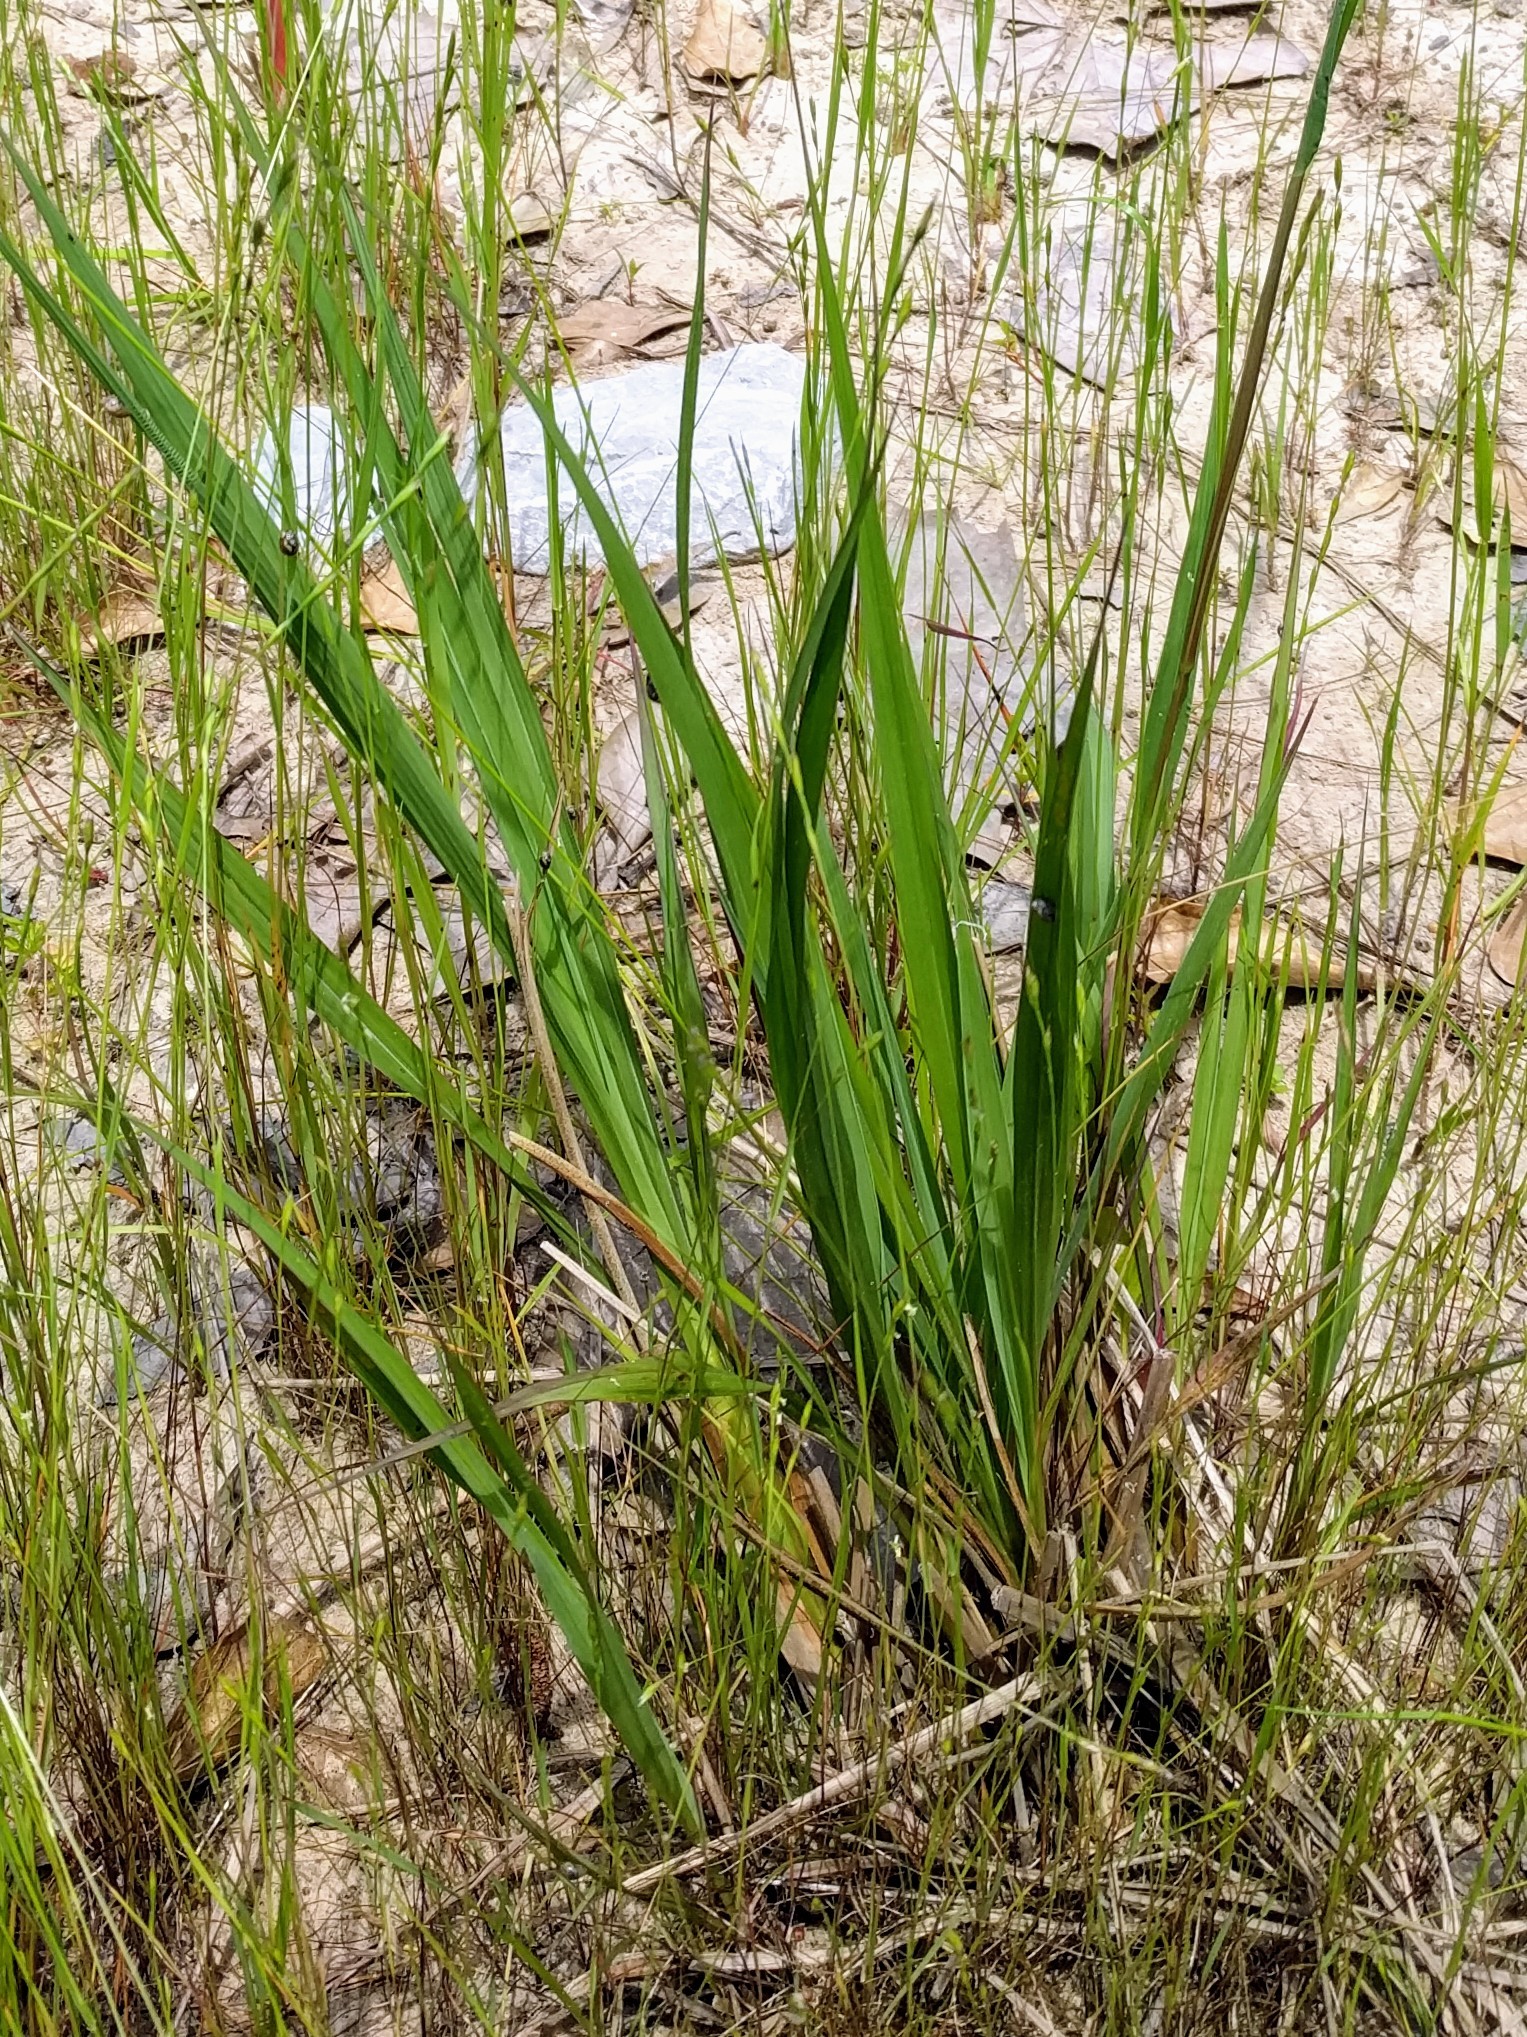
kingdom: Plantae
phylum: Tracheophyta
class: Liliopsida
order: Poales
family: Poaceae
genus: Tripsacum
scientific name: Tripsacum dactyloides
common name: Buffalo-grass
